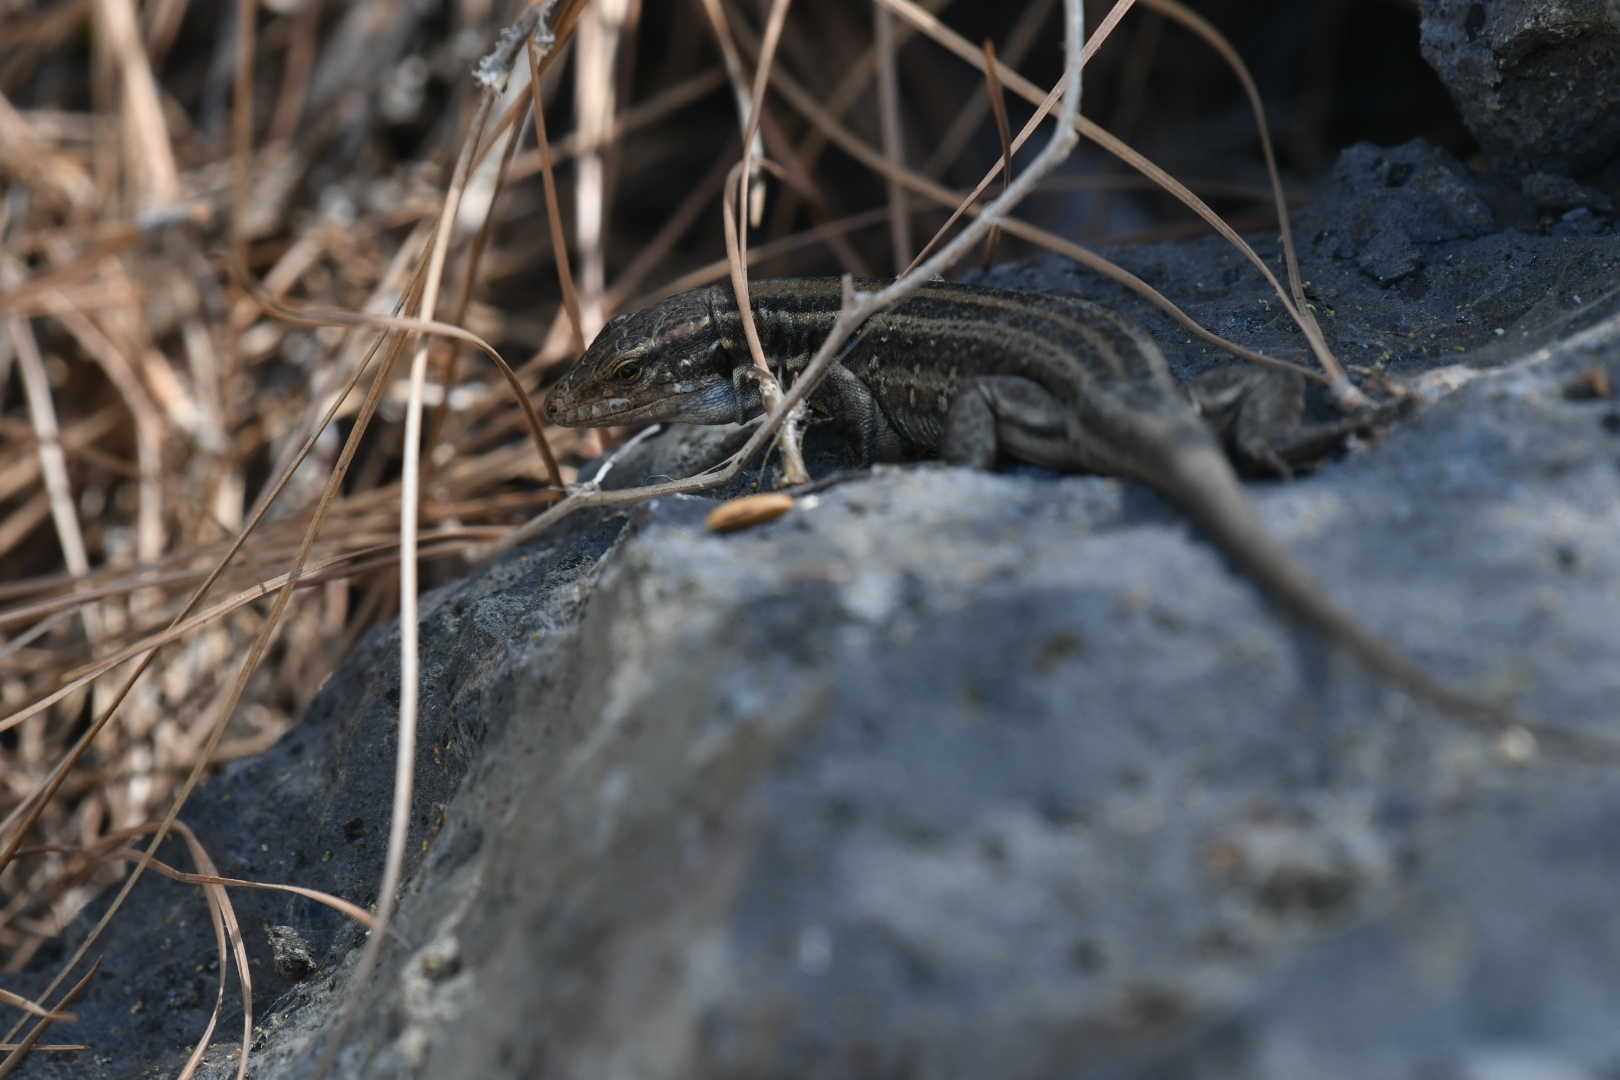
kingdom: Animalia
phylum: Chordata
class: Squamata
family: Lacertidae
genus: Gallotia
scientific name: Gallotia galloti
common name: Gallot's lizard
